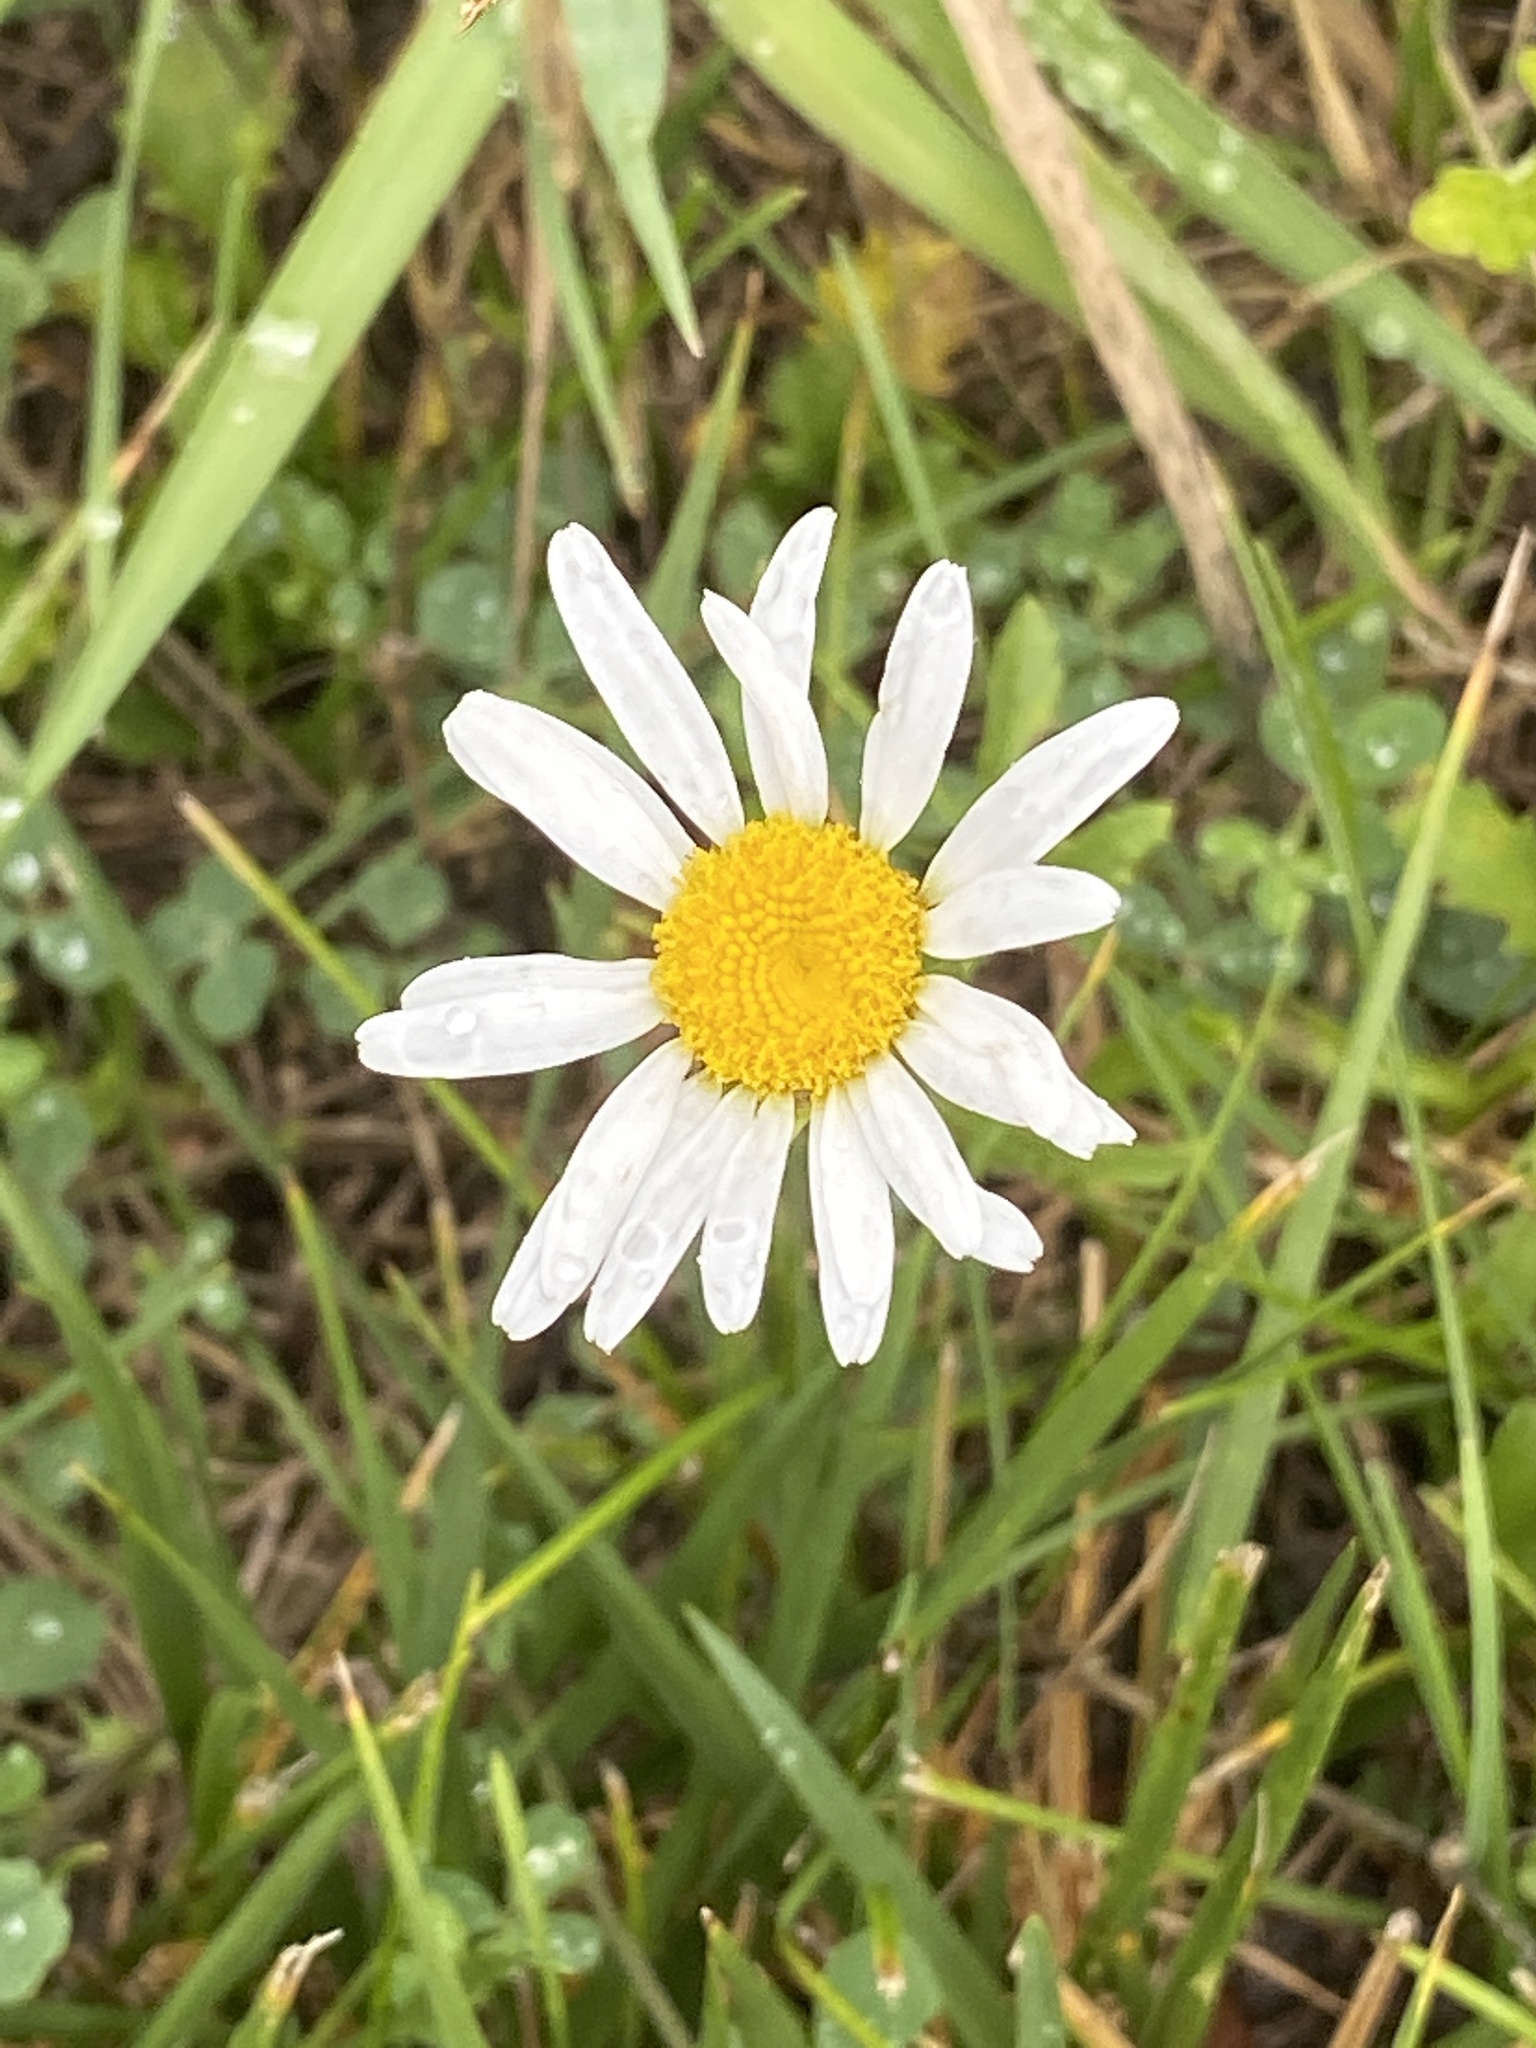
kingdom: Plantae
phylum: Tracheophyta
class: Magnoliopsida
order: Asterales
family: Asteraceae
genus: Leucanthemum
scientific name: Leucanthemum vulgare
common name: Oxeye daisy
